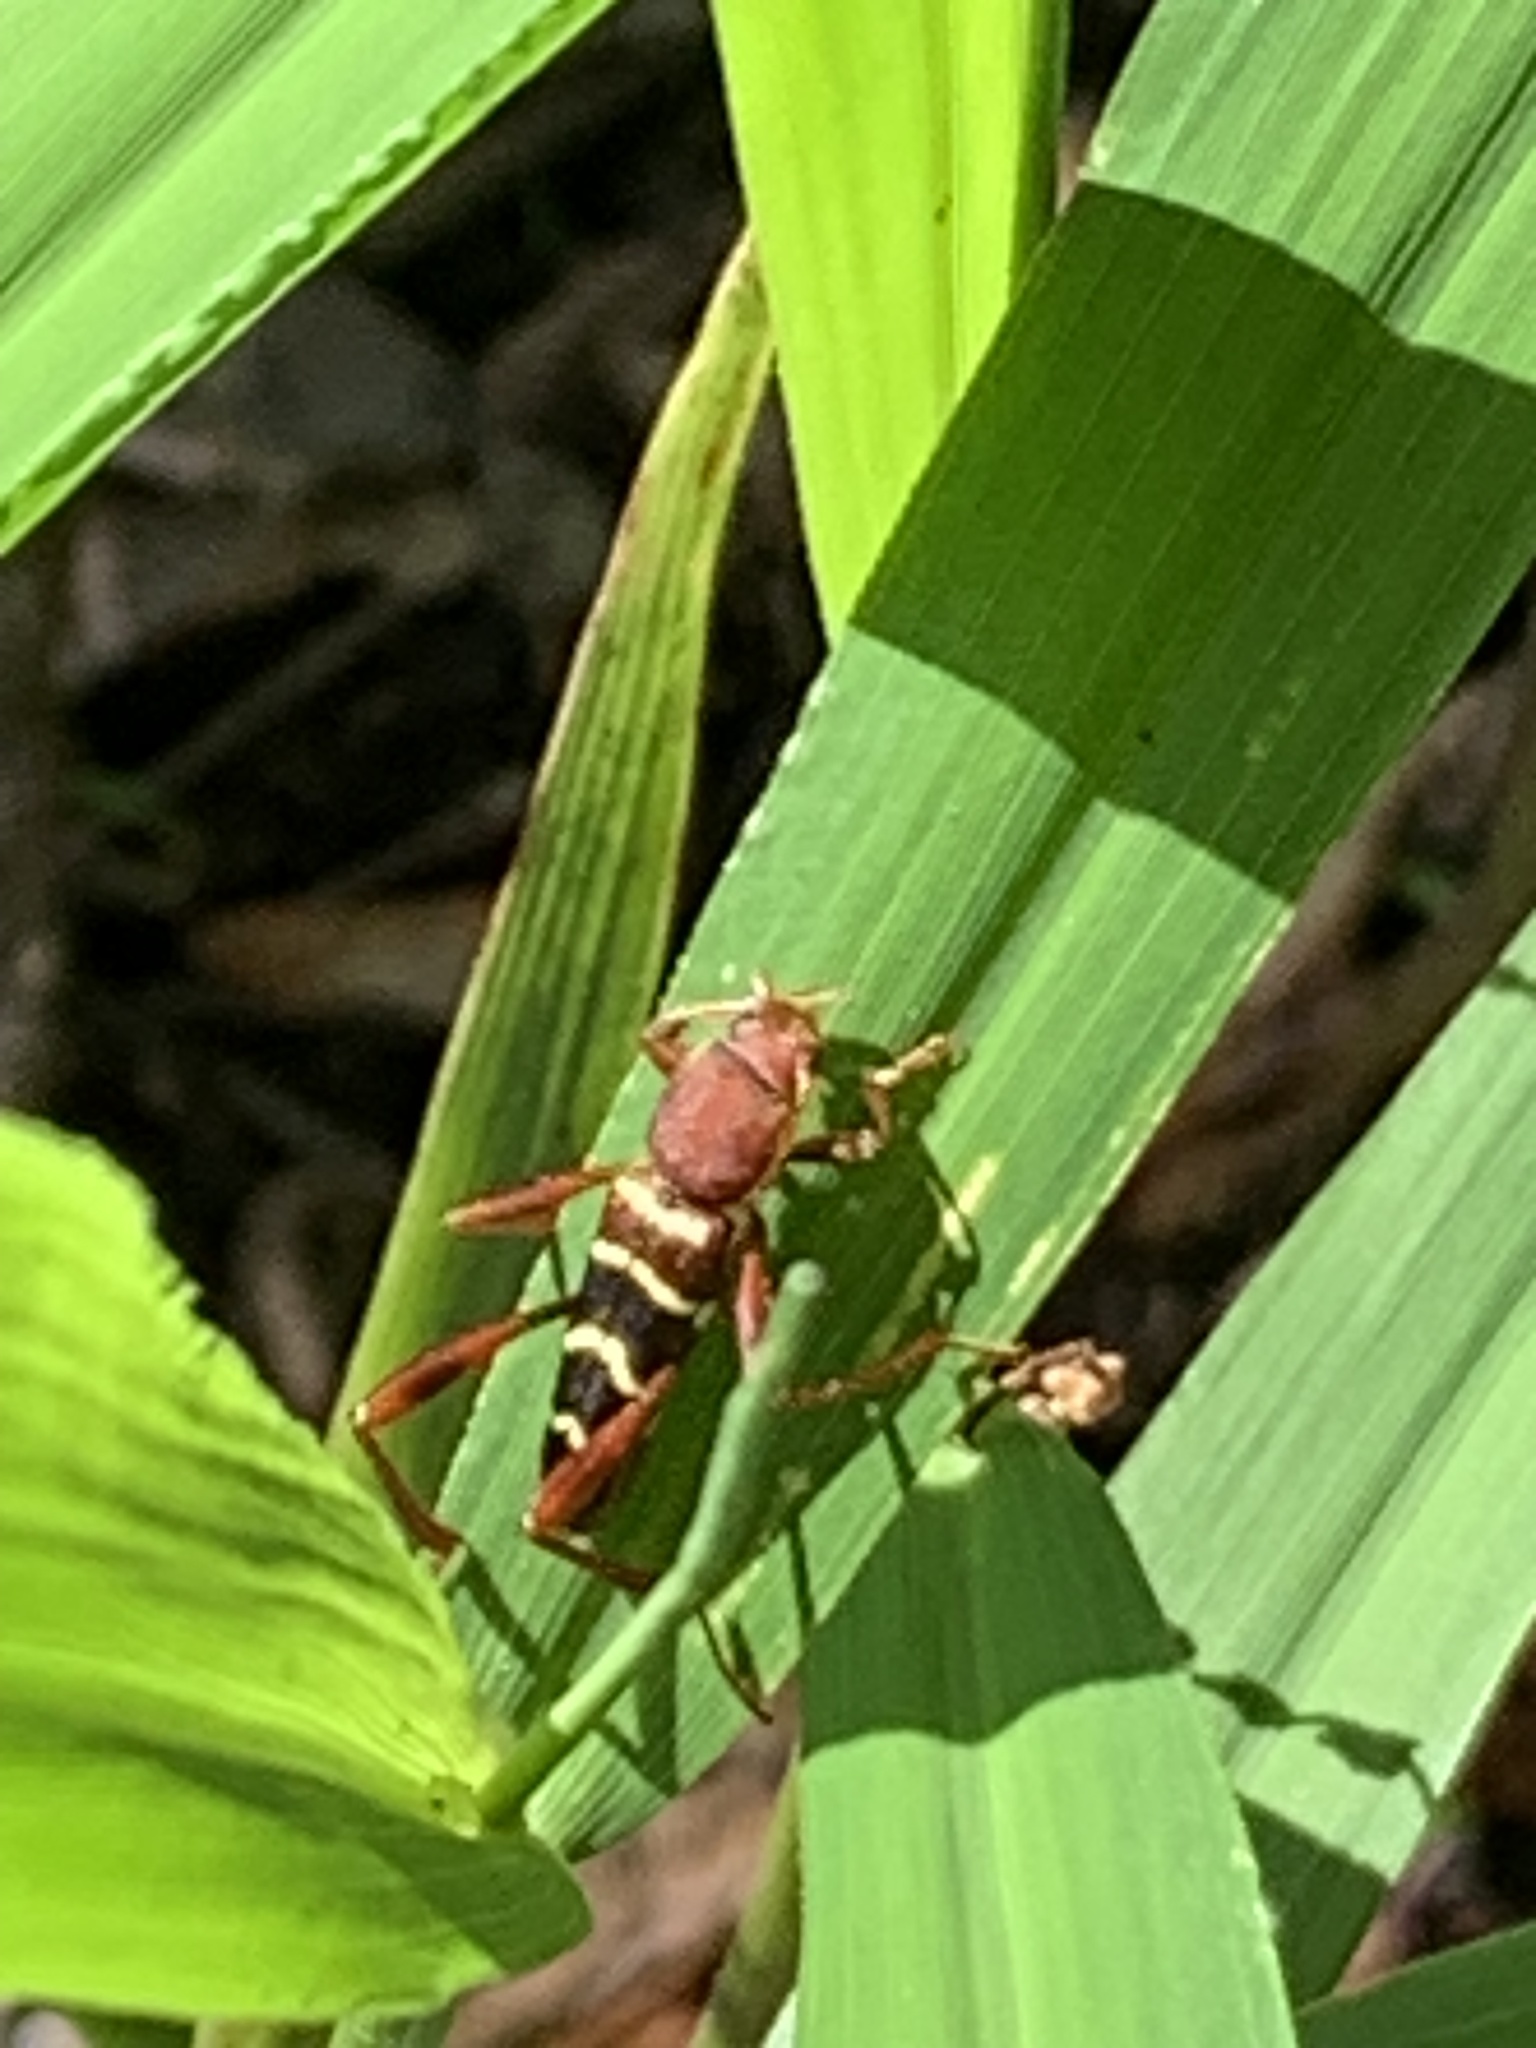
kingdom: Animalia
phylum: Arthropoda
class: Insecta
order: Coleoptera
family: Cerambycidae
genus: Neoclytus
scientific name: Neoclytus acuminatus
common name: Read-headed ash borer
